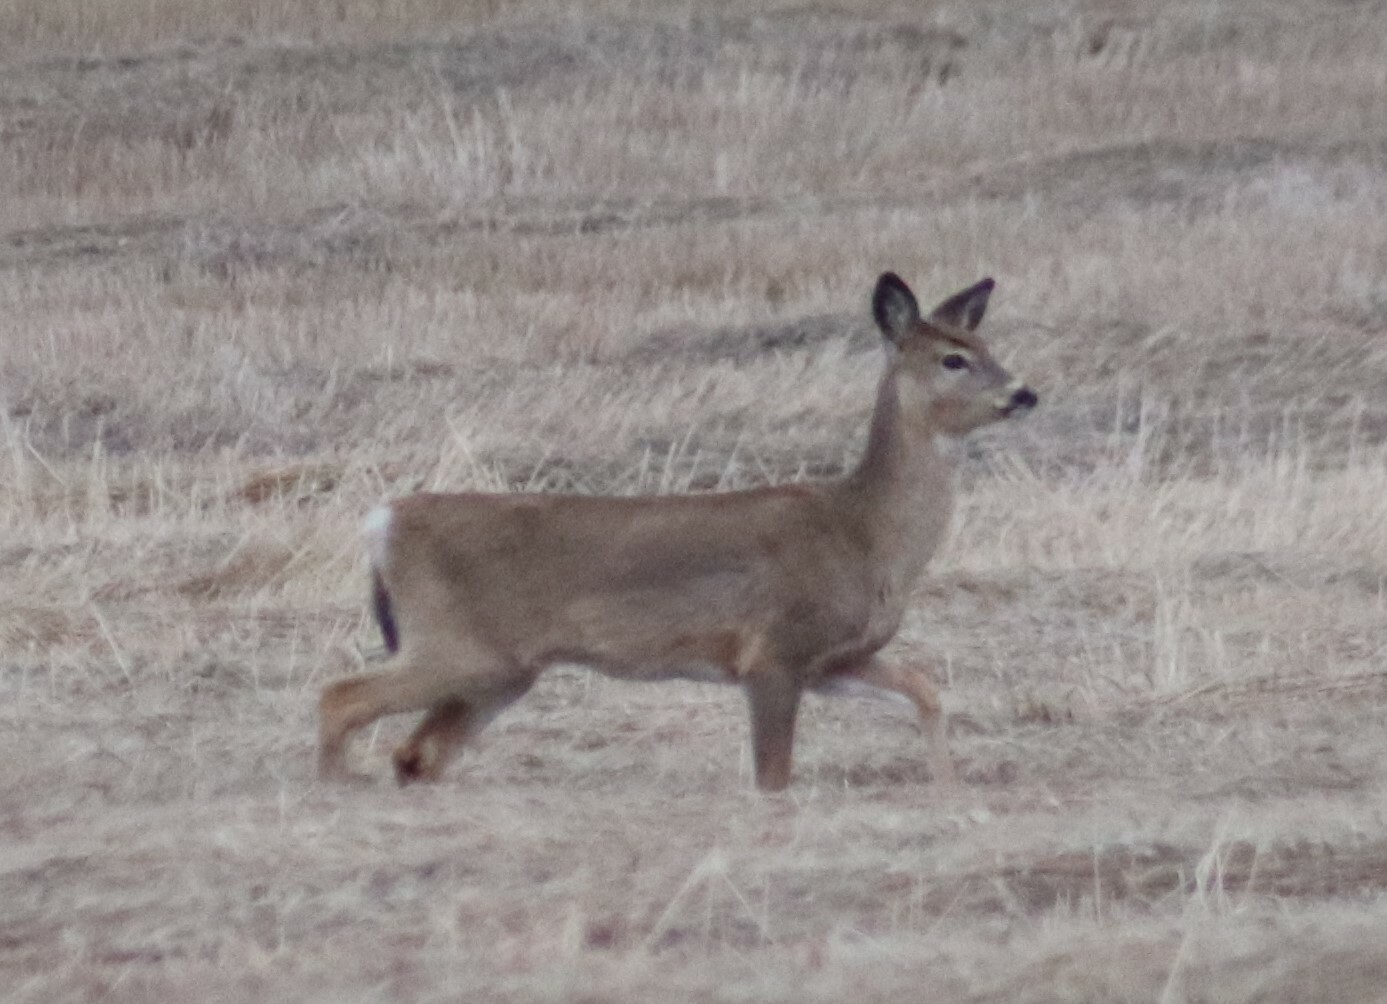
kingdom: Animalia
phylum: Chordata
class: Mammalia
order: Artiodactyla
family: Cervidae
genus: Odocoileus
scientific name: Odocoileus virginianus
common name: White-tailed deer
